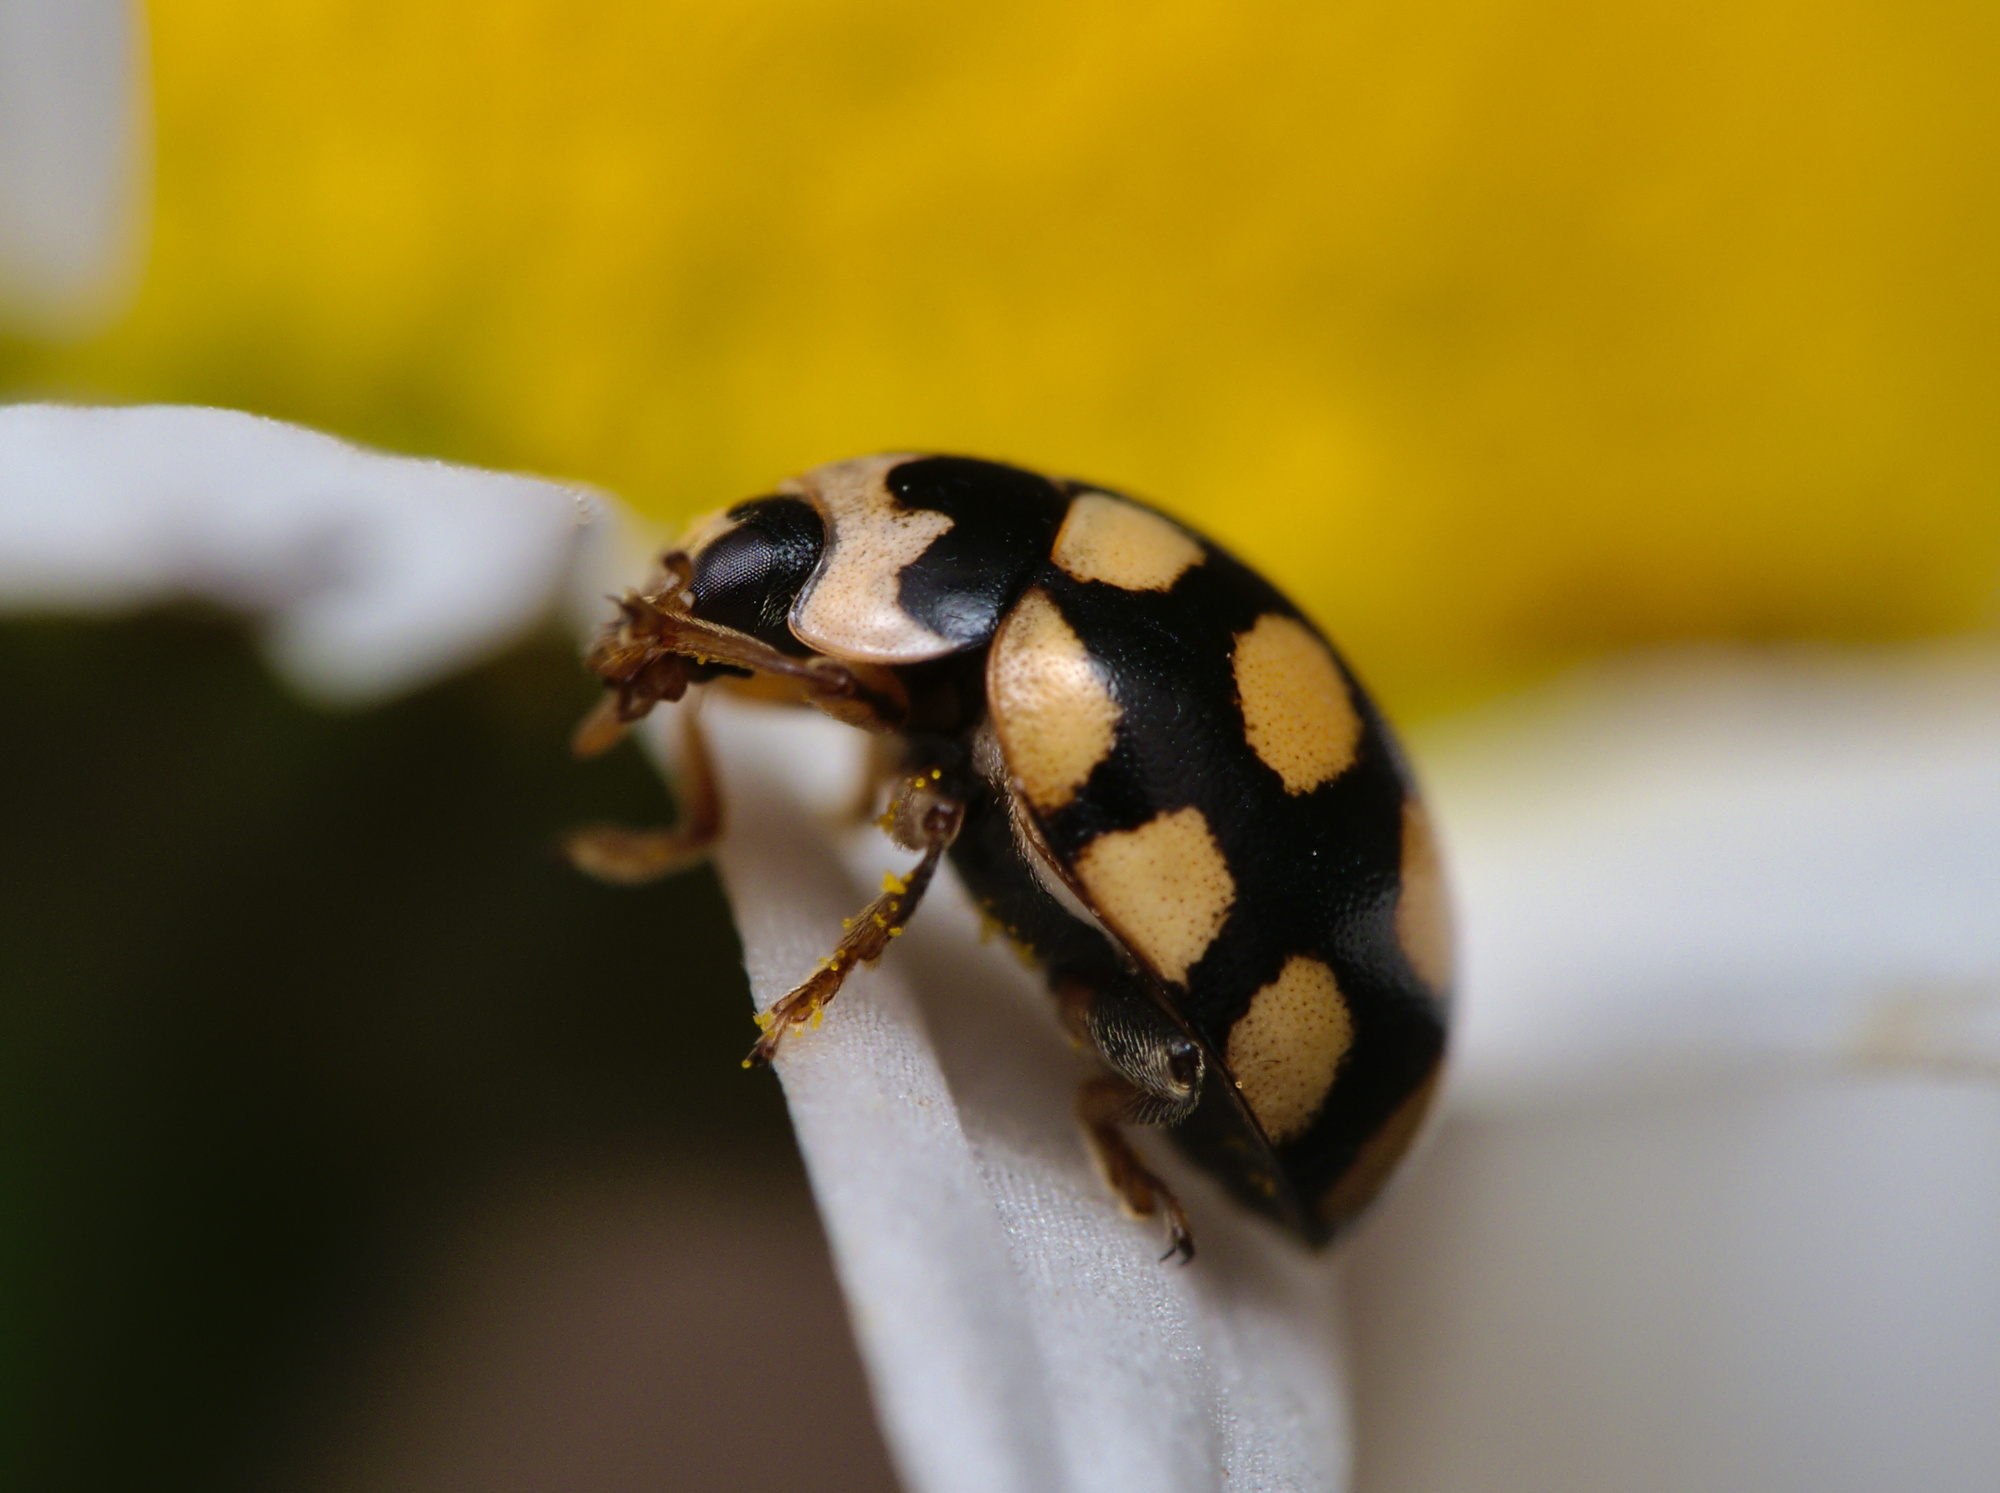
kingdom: Animalia
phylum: Arthropoda
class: Insecta
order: Coleoptera
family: Coccinellidae
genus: Coccinula
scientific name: Coccinula quatuordecimpustulata
